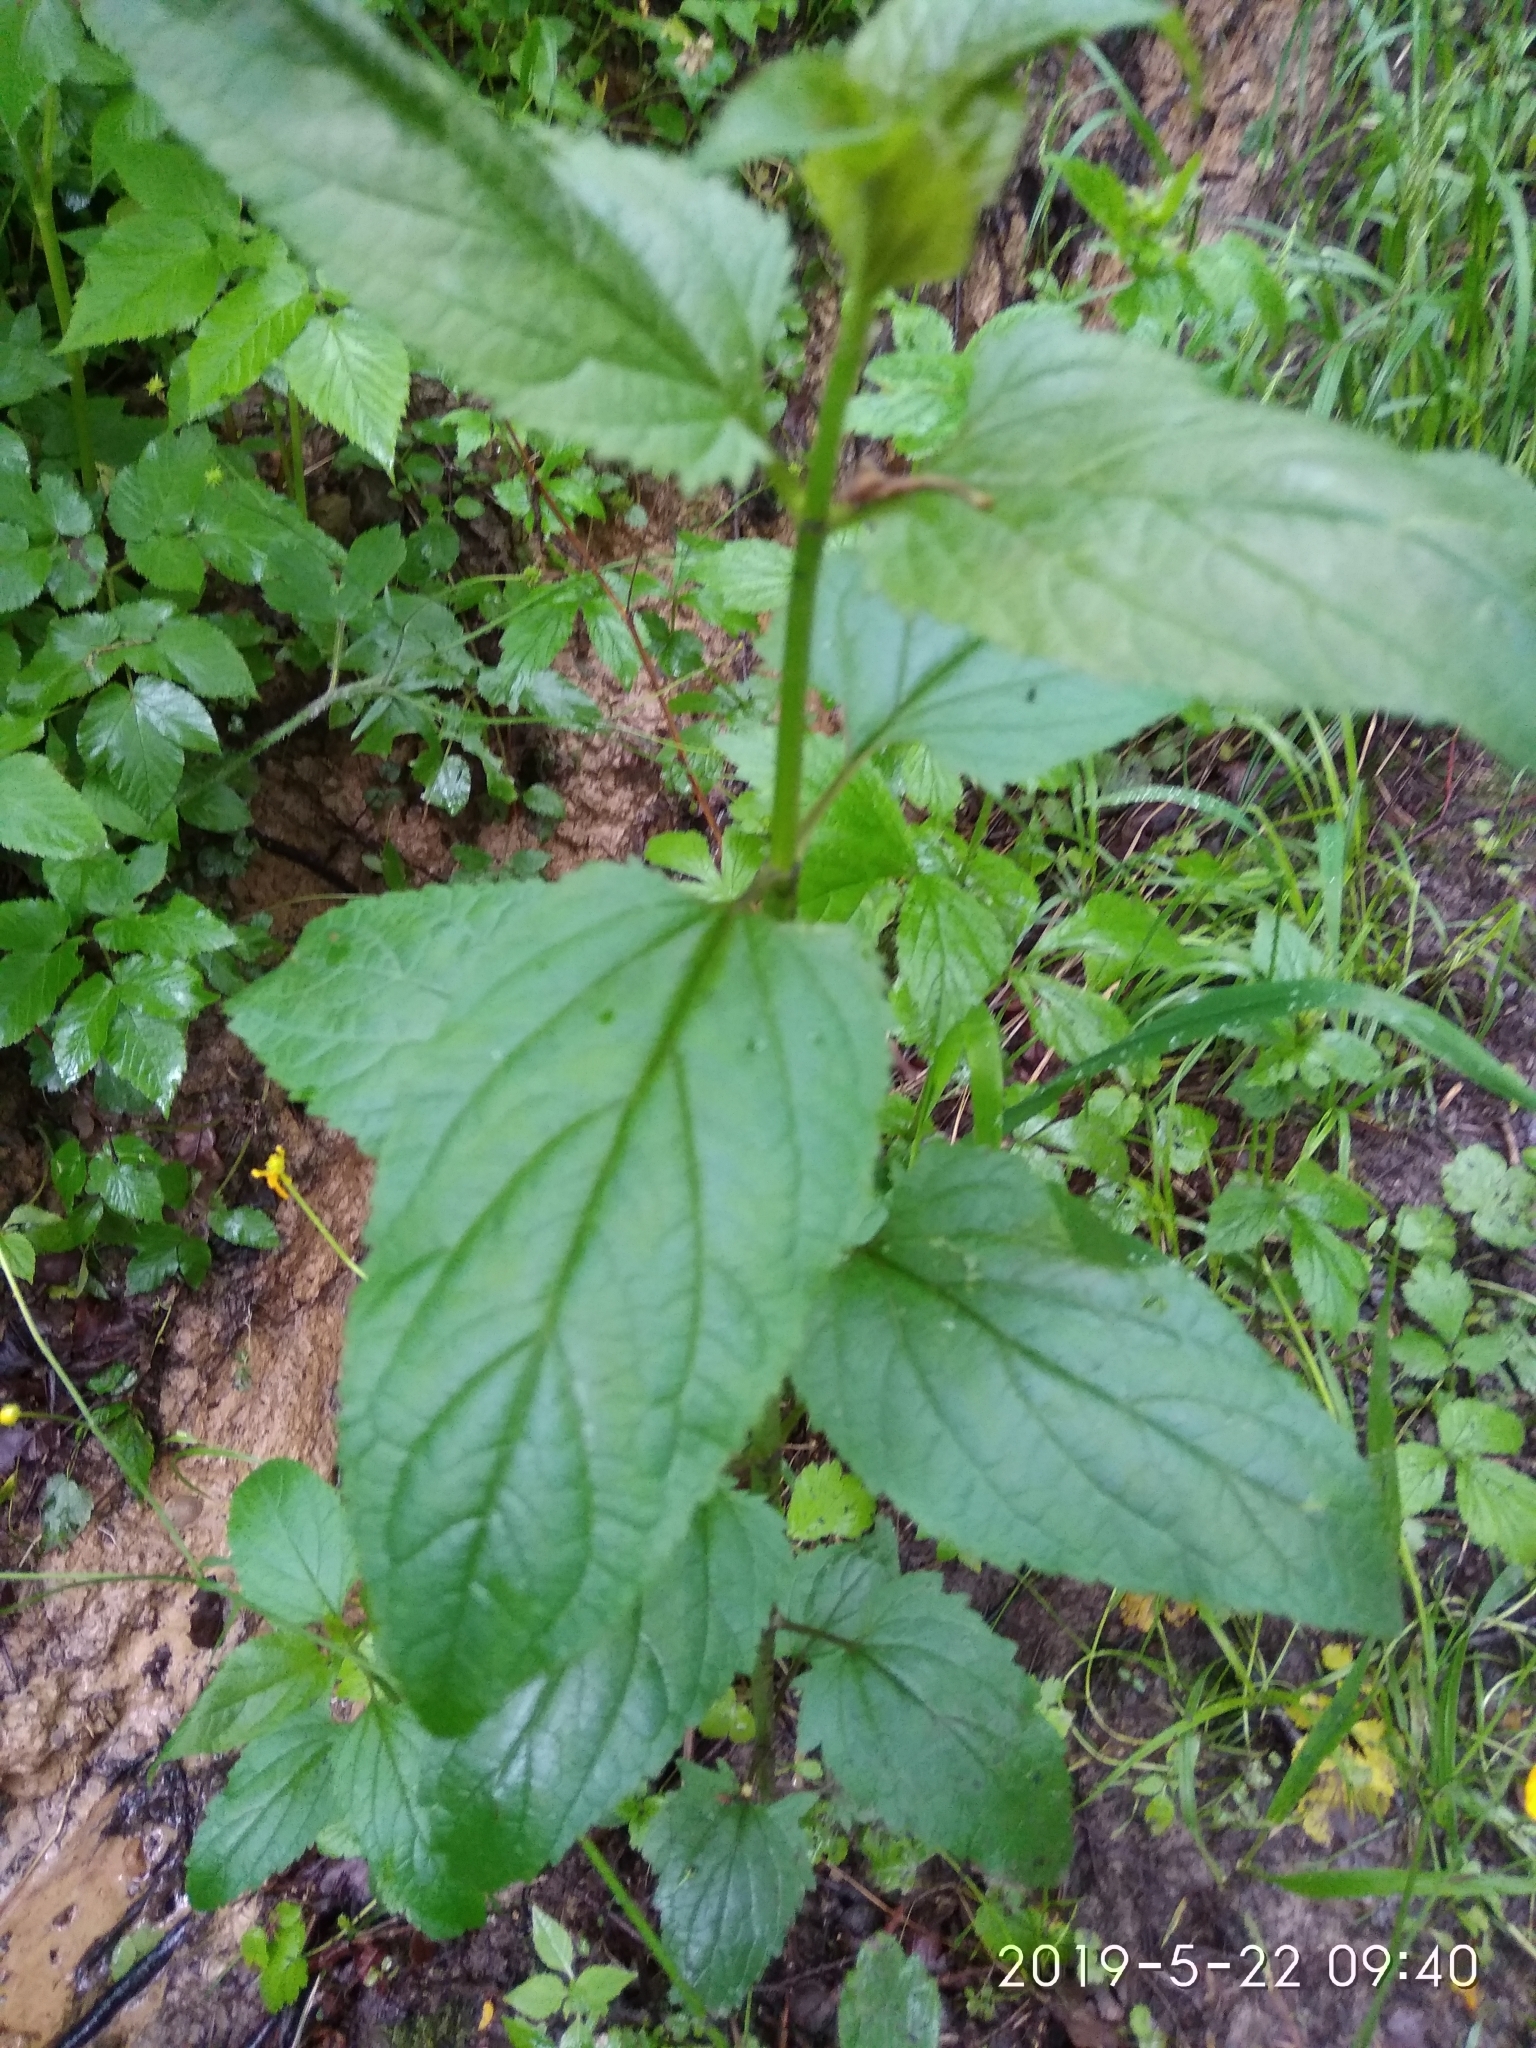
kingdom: Plantae
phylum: Tracheophyta
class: Magnoliopsida
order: Lamiales
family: Scrophulariaceae
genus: Scrophularia
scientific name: Scrophularia nodosa
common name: Common figwort
